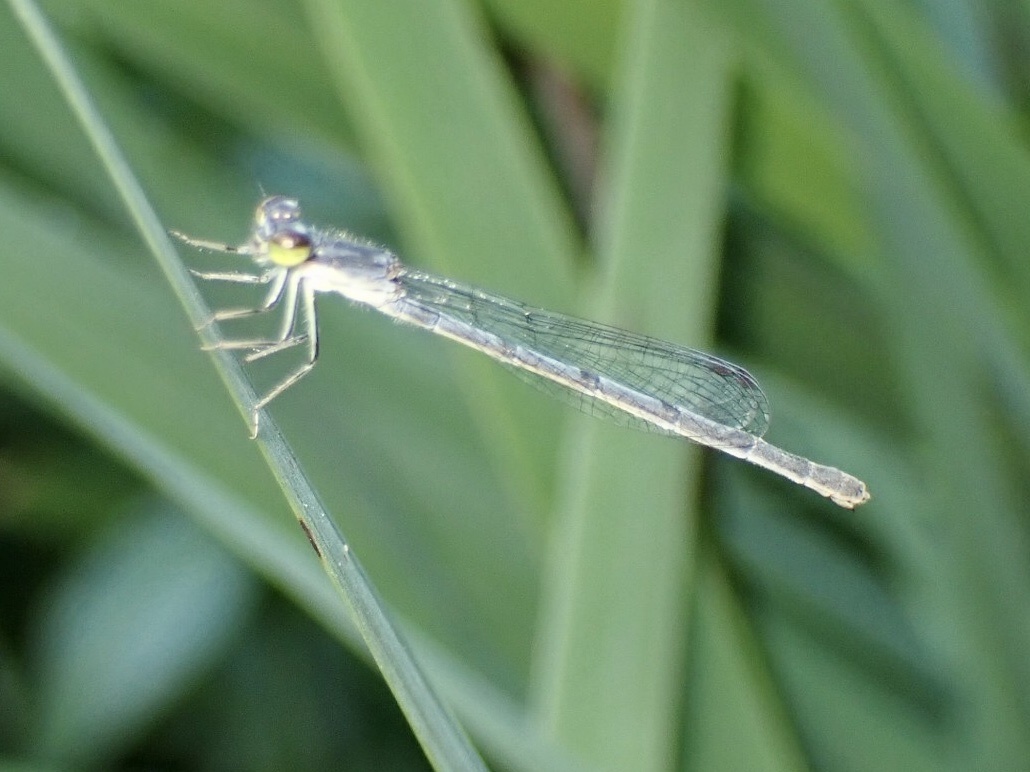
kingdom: Animalia
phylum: Arthropoda
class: Insecta
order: Odonata
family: Coenagrionidae
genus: Ischnura
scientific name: Ischnura posita
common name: Fragile forktail
